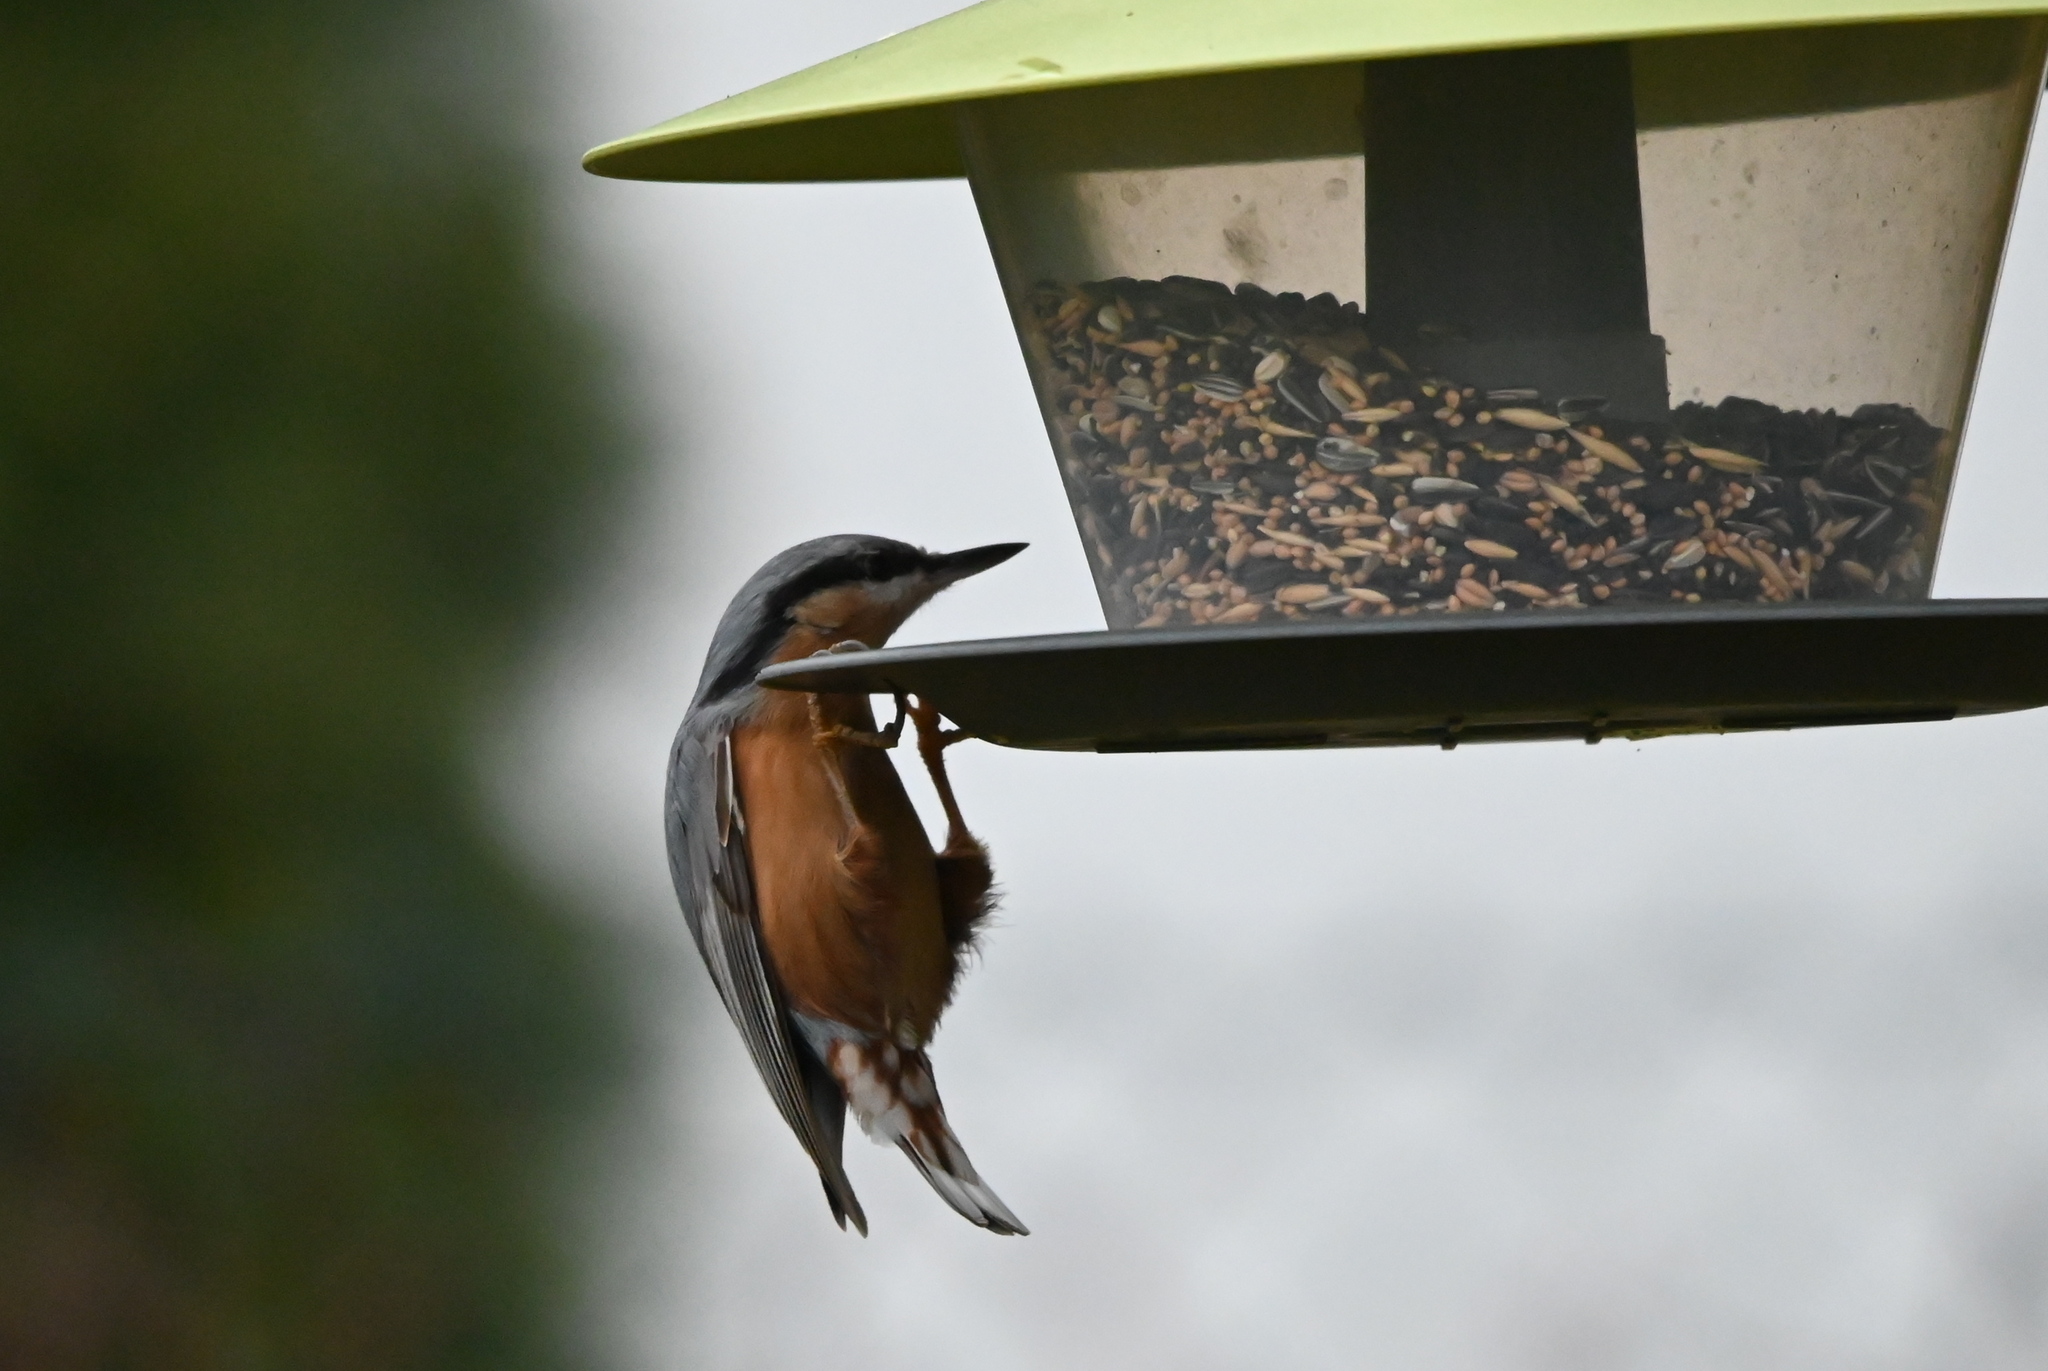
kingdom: Animalia
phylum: Chordata
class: Aves
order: Passeriformes
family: Sittidae
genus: Sitta
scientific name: Sitta europaea
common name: Eurasian nuthatch
